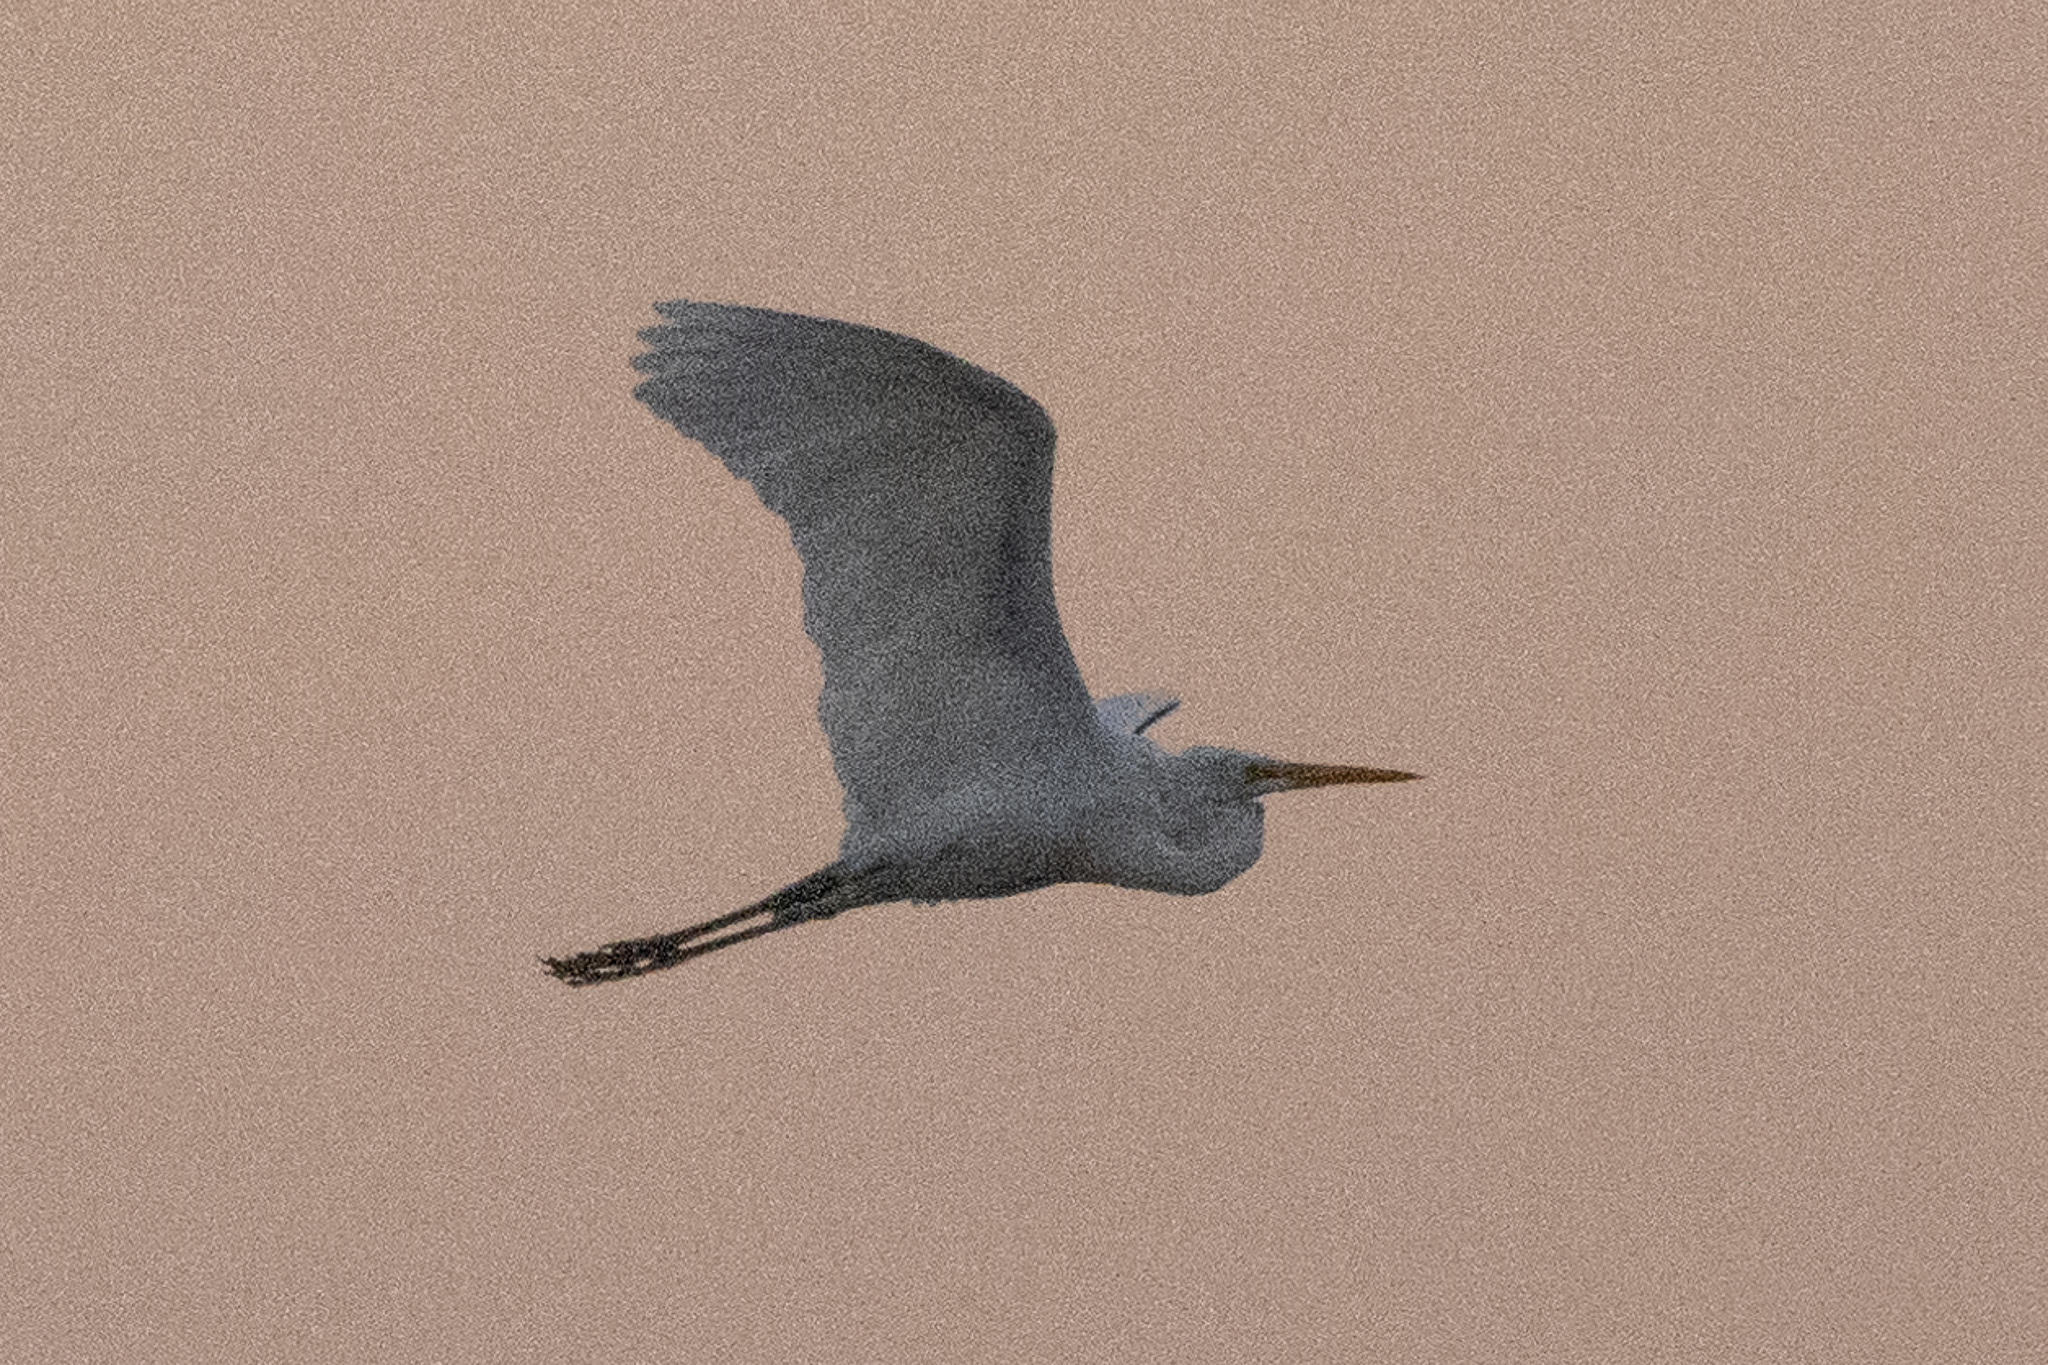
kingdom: Animalia
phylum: Chordata
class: Aves
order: Pelecaniformes
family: Ardeidae
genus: Ardea
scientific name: Ardea alba
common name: Great egret
